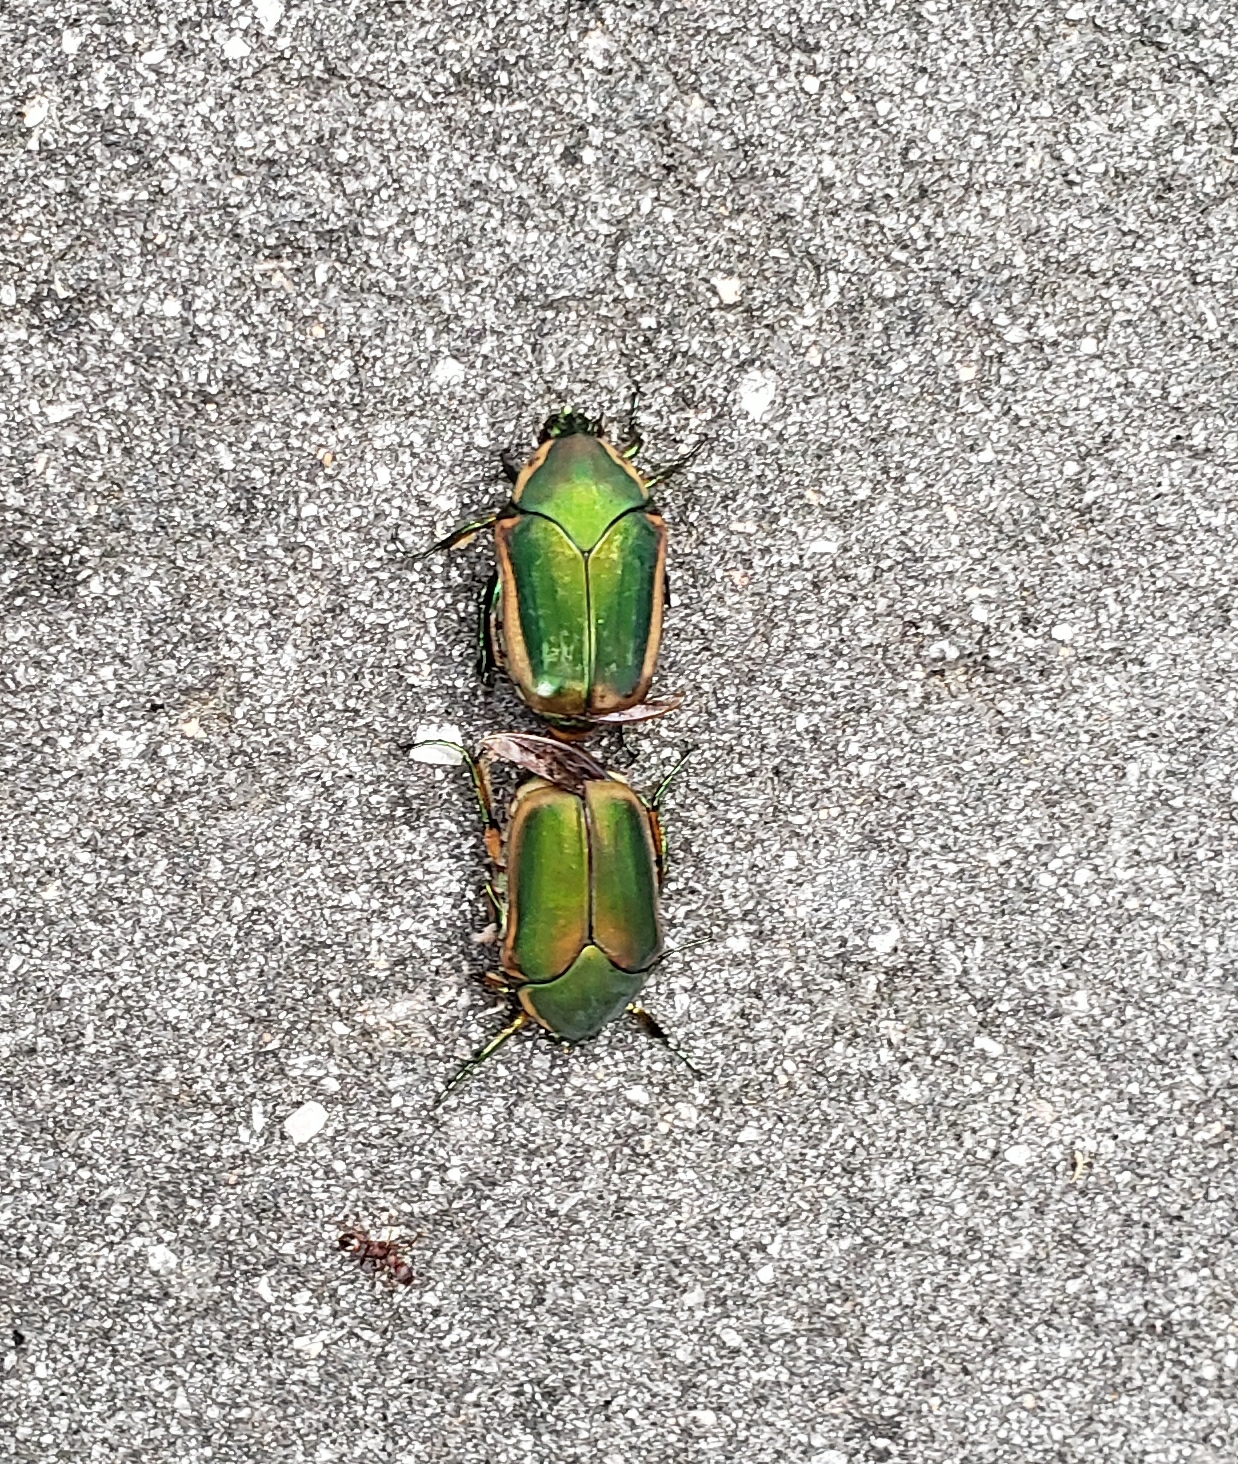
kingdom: Animalia
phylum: Arthropoda
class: Insecta
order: Coleoptera
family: Scarabaeidae
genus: Cotinis
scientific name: Cotinis nitida
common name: Common green june beetle
